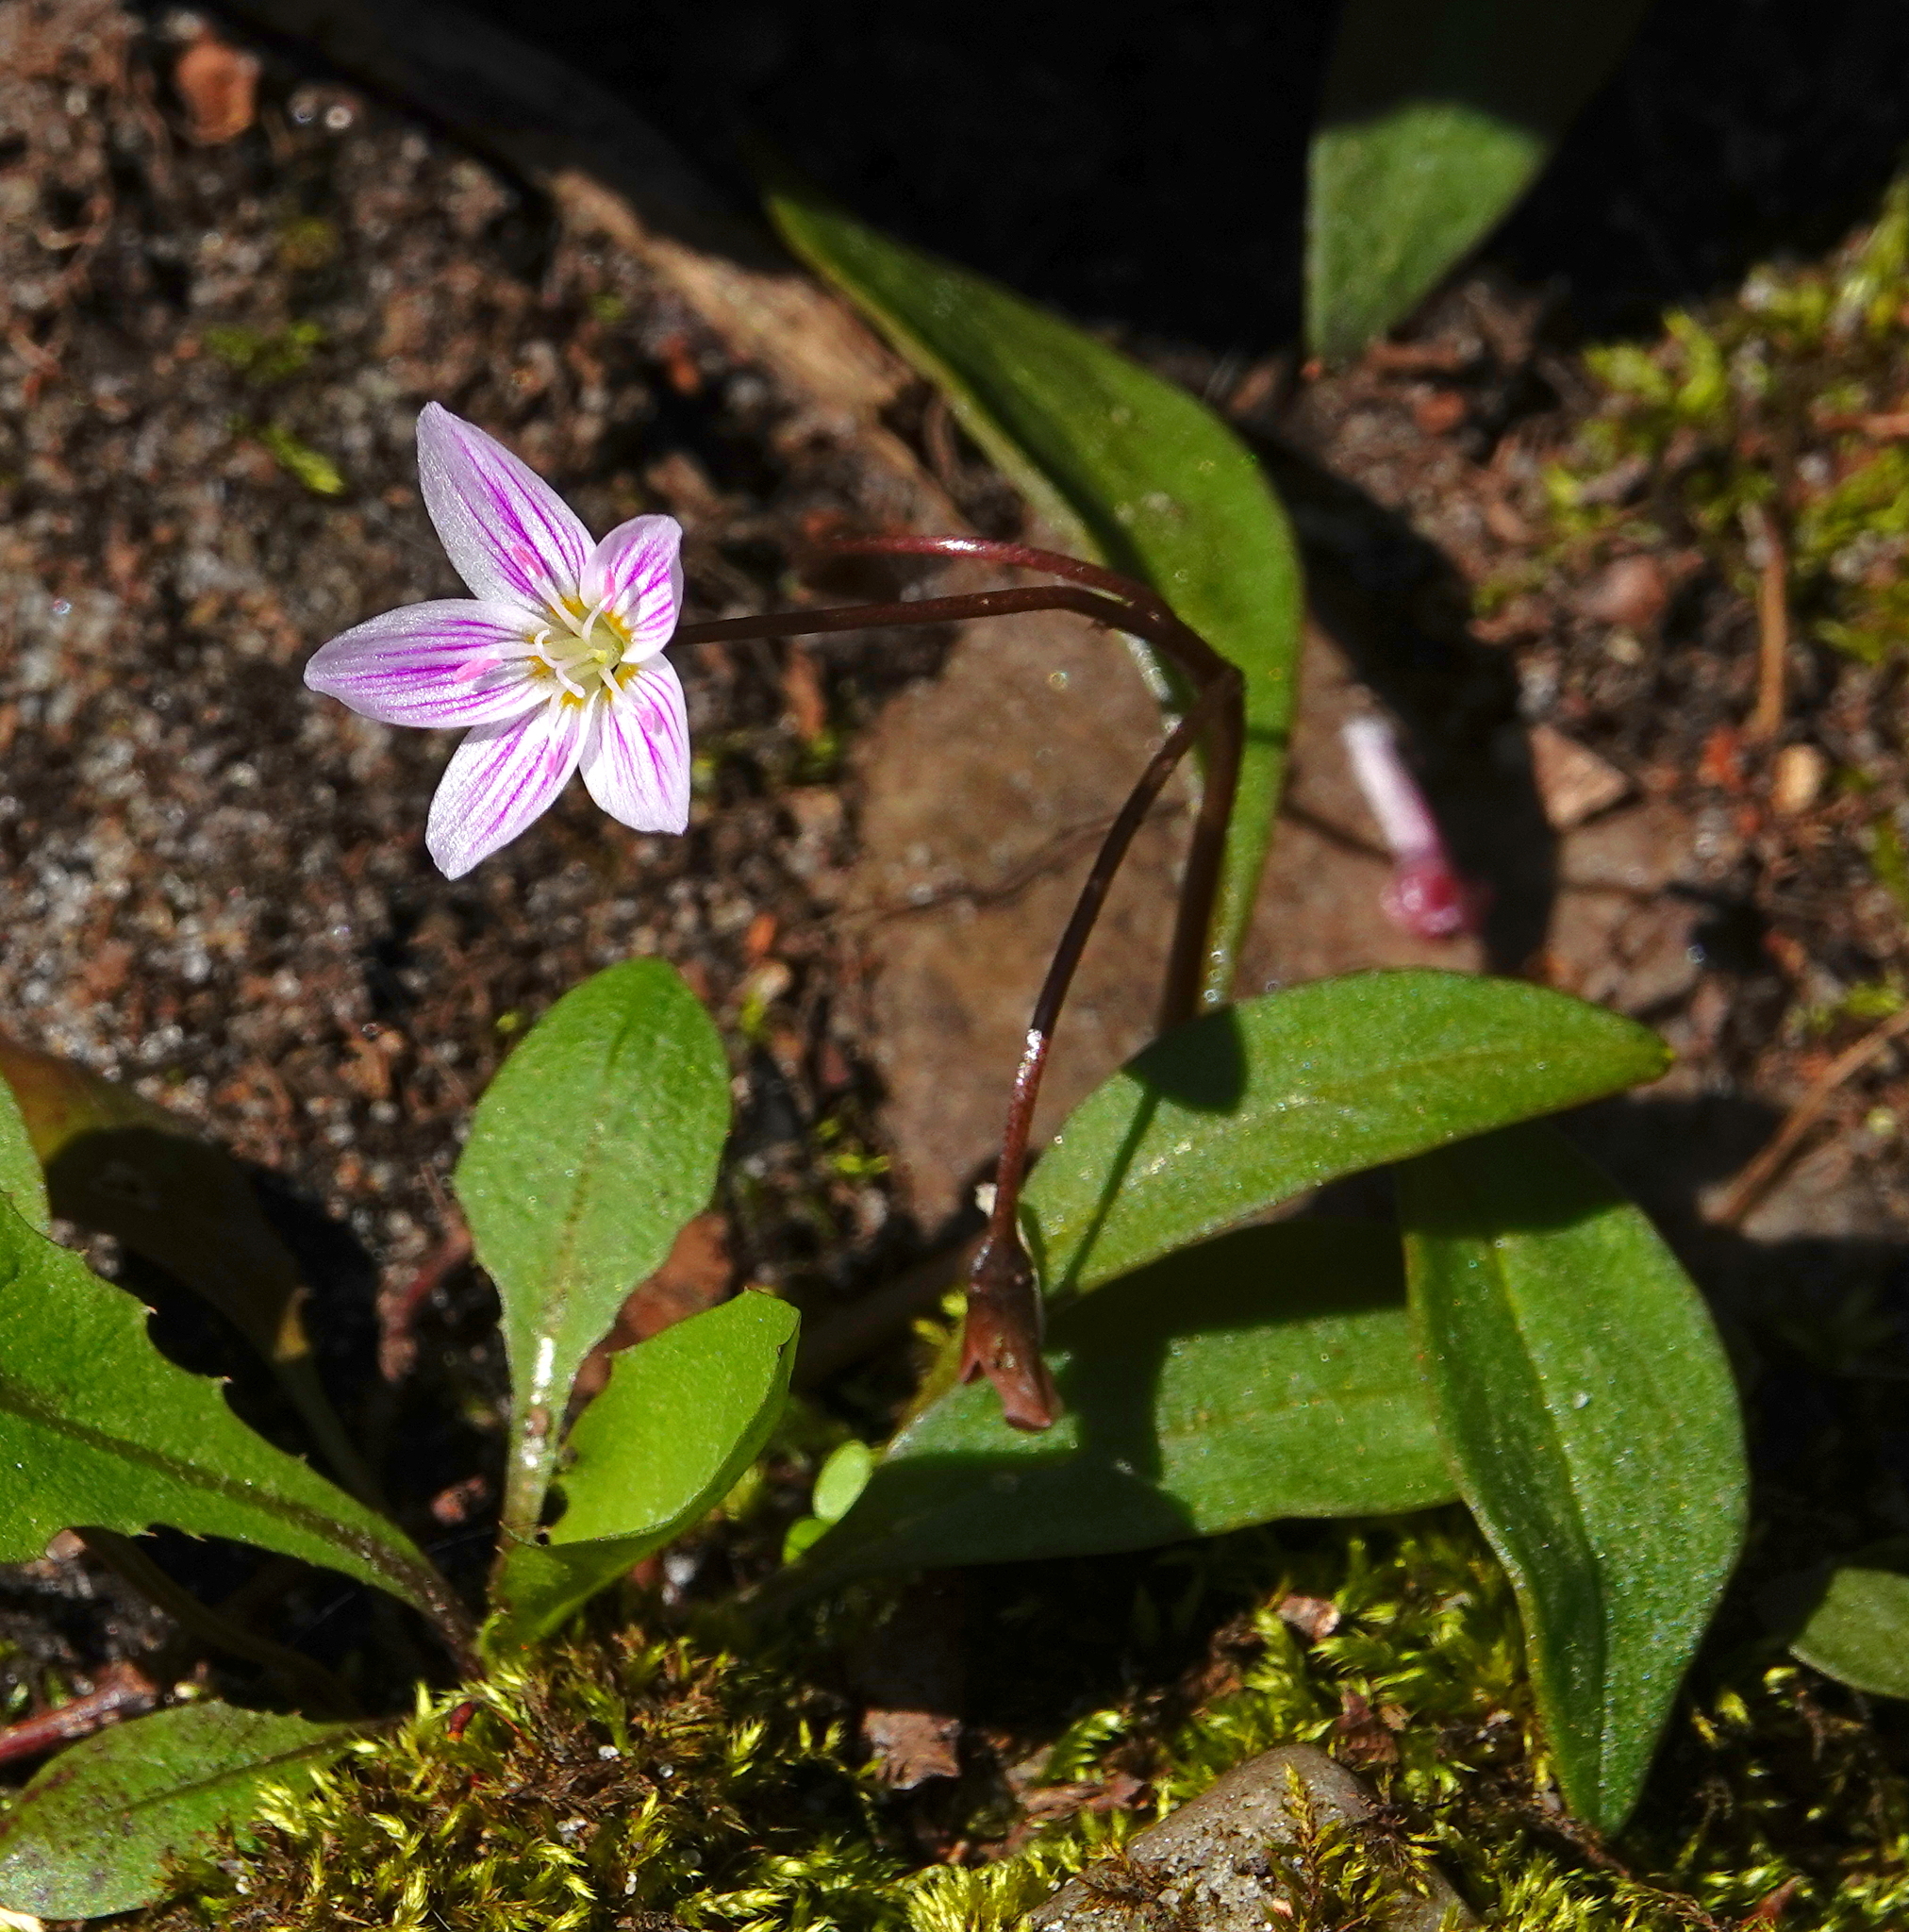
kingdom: Plantae
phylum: Tracheophyta
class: Magnoliopsida
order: Caryophyllales
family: Montiaceae
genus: Claytonia
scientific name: Claytonia caroliniana
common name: Carolina spring beauty
